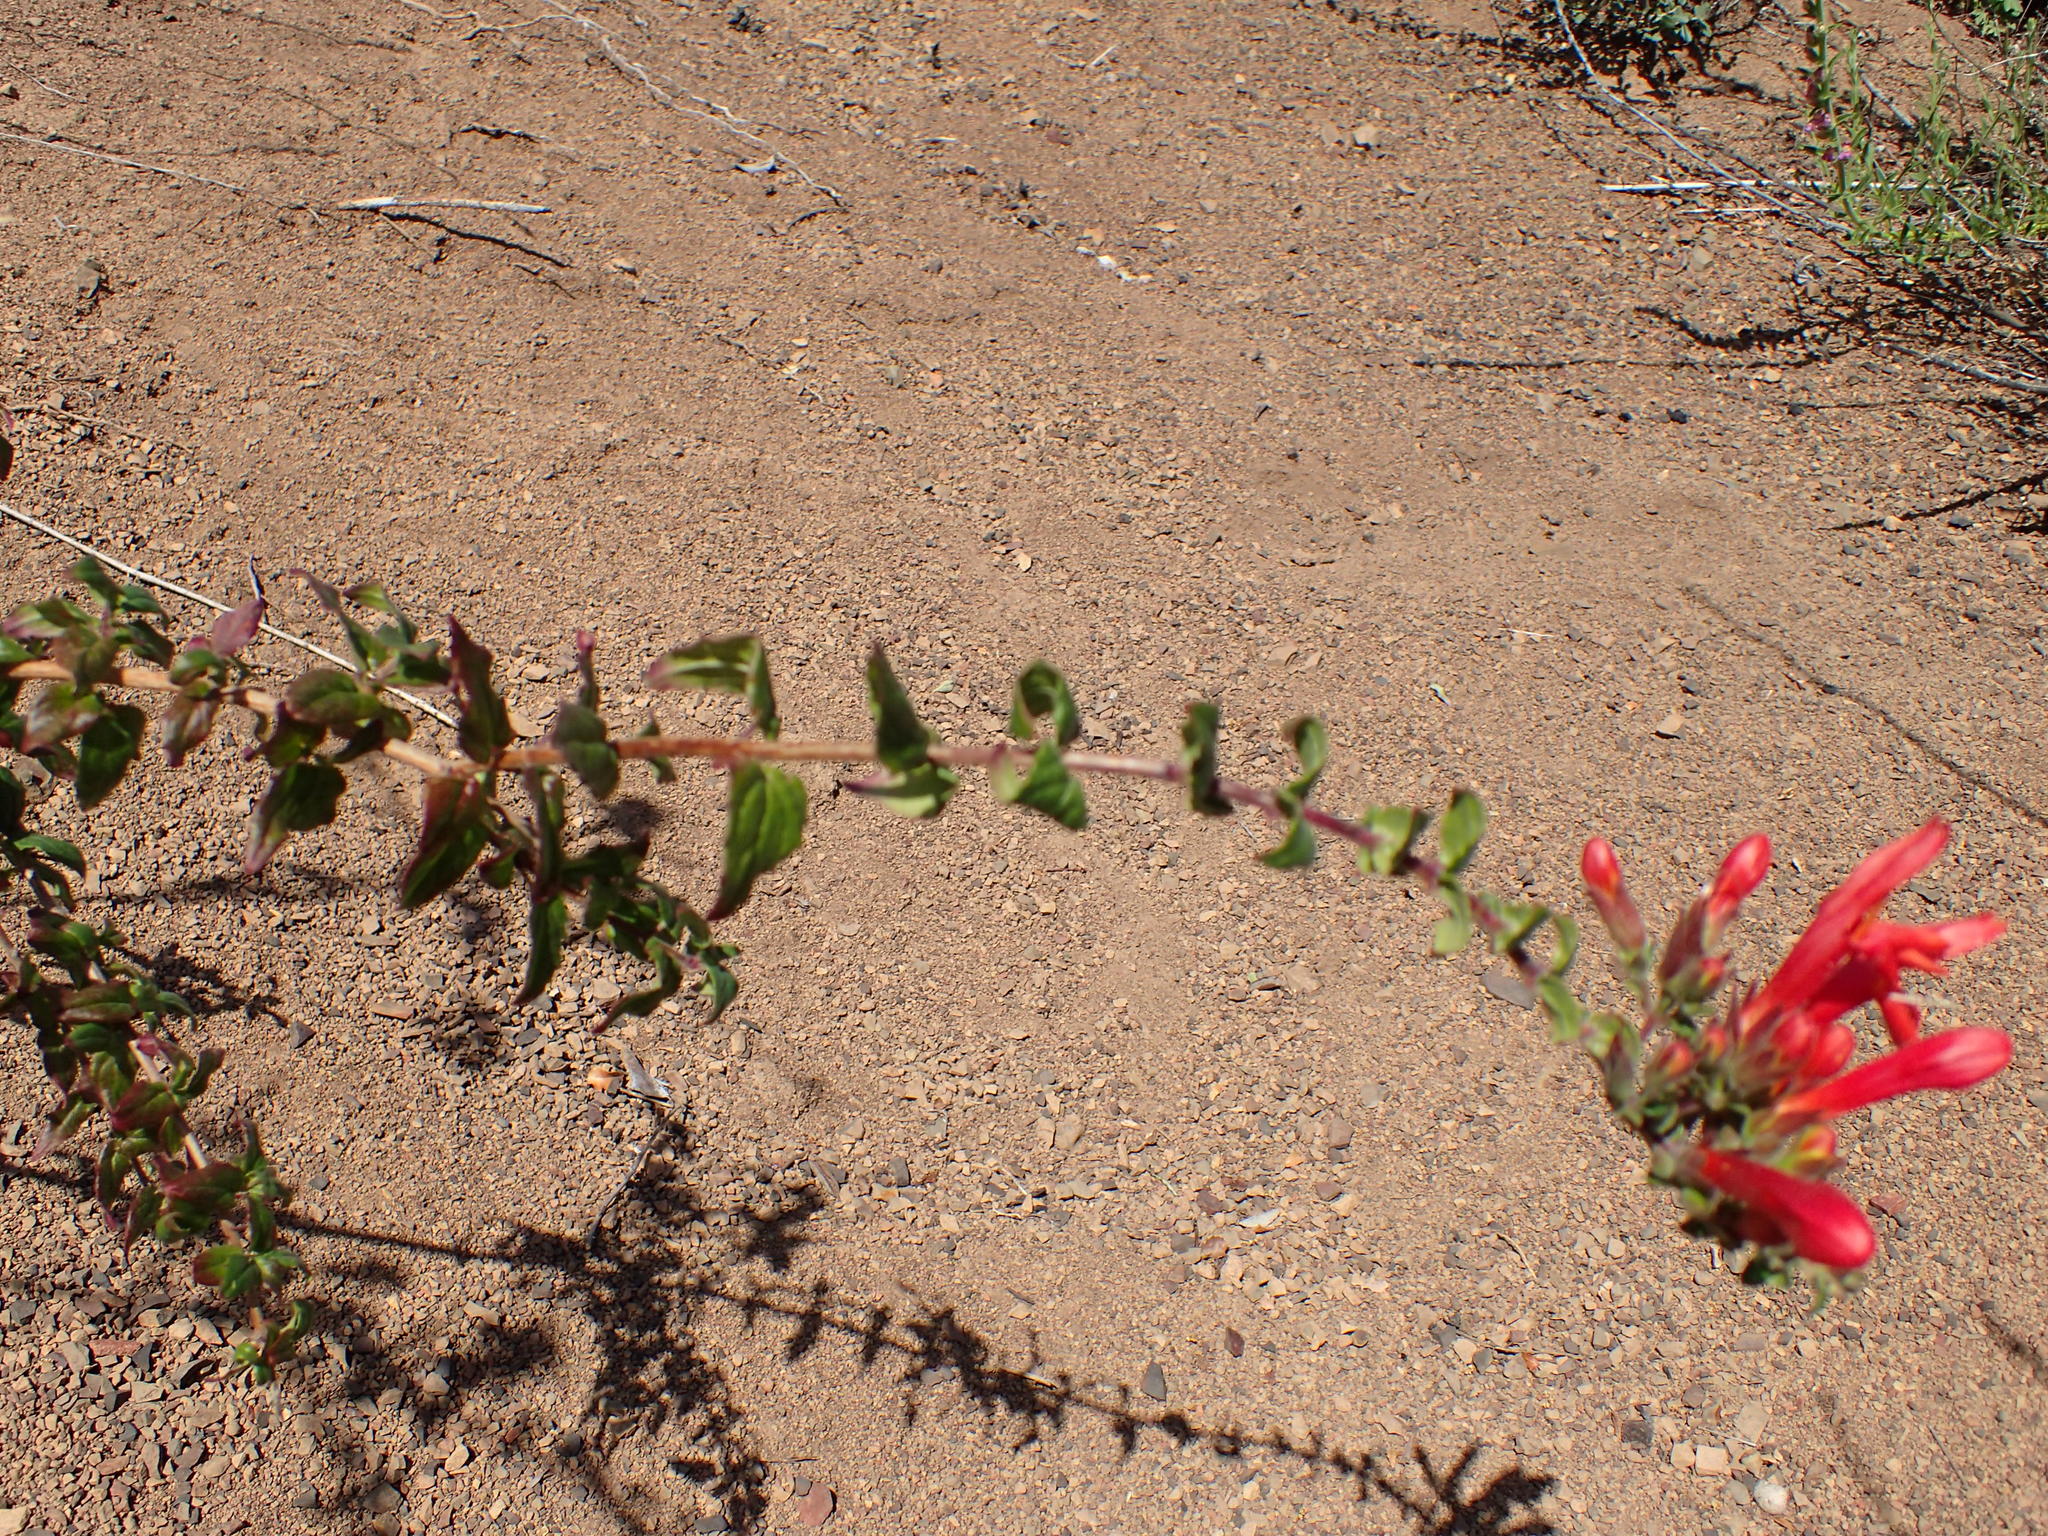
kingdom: Plantae
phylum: Tracheophyta
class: Magnoliopsida
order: Lamiales
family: Plantaginaceae
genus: Keckiella
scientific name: Keckiella cordifolia
